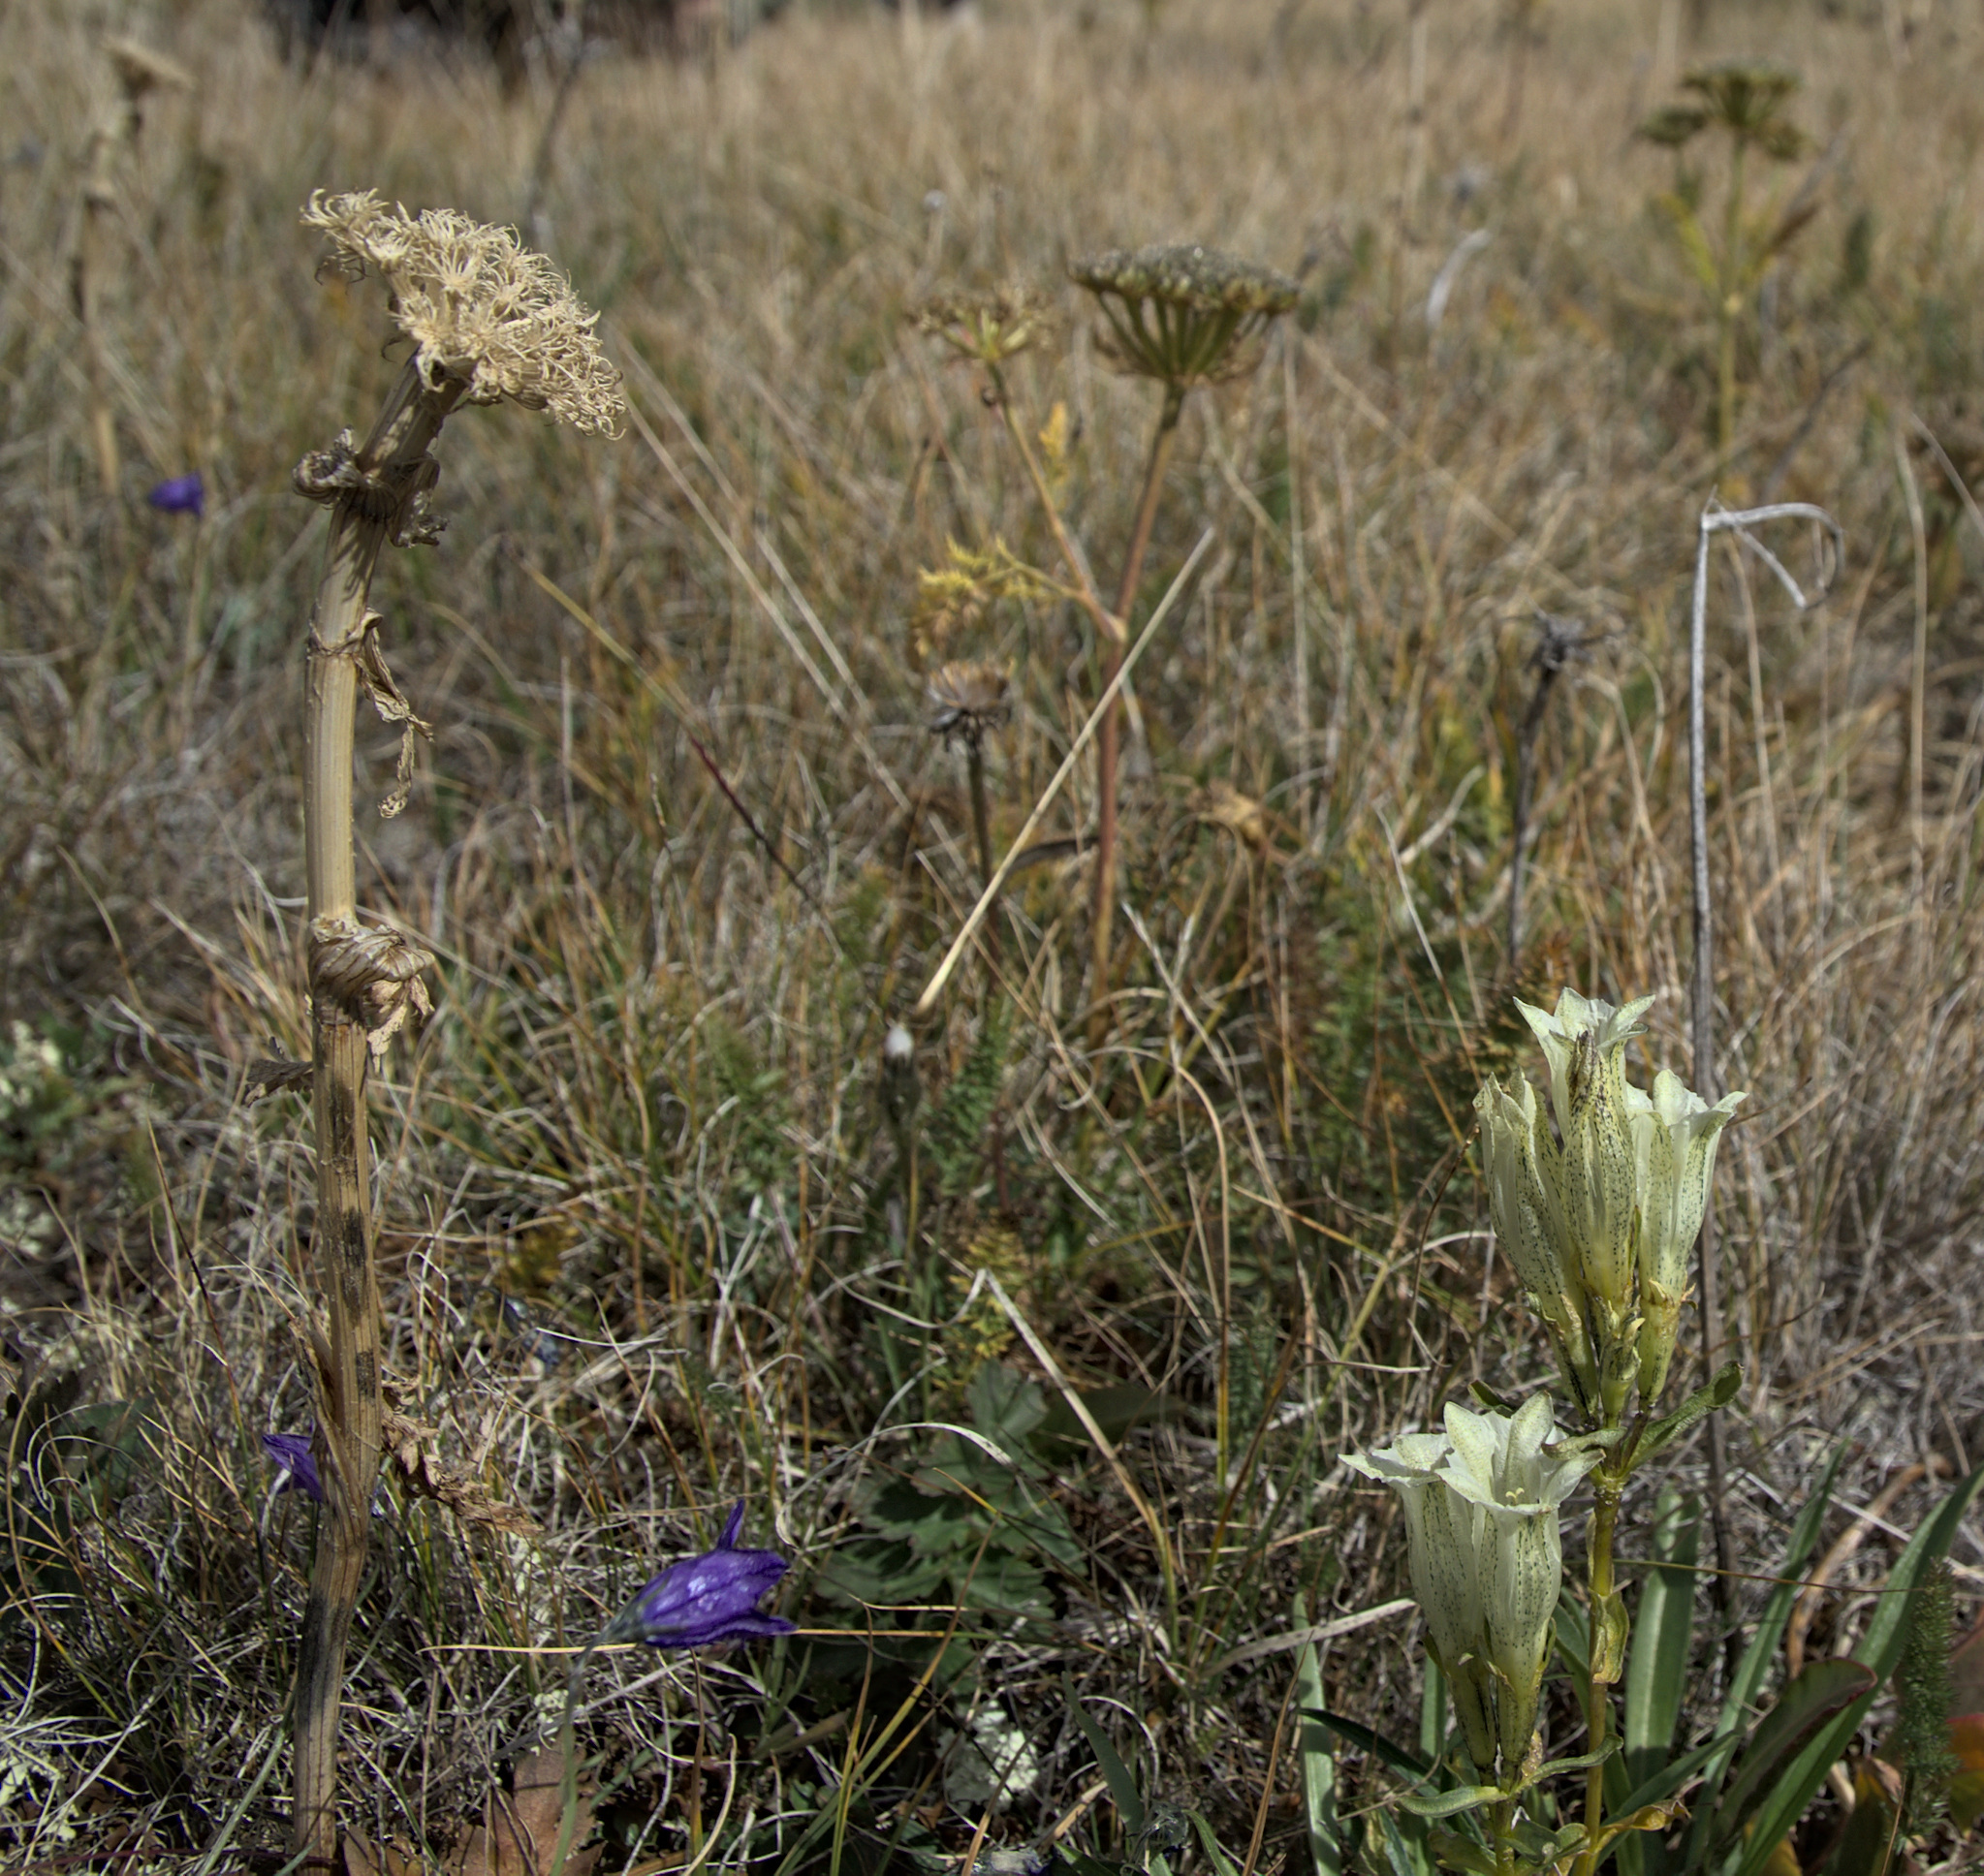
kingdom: Plantae
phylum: Tracheophyta
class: Magnoliopsida
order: Gentianales
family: Gentianaceae
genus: Gentiana
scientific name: Gentiana algida
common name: Arctic gentian
